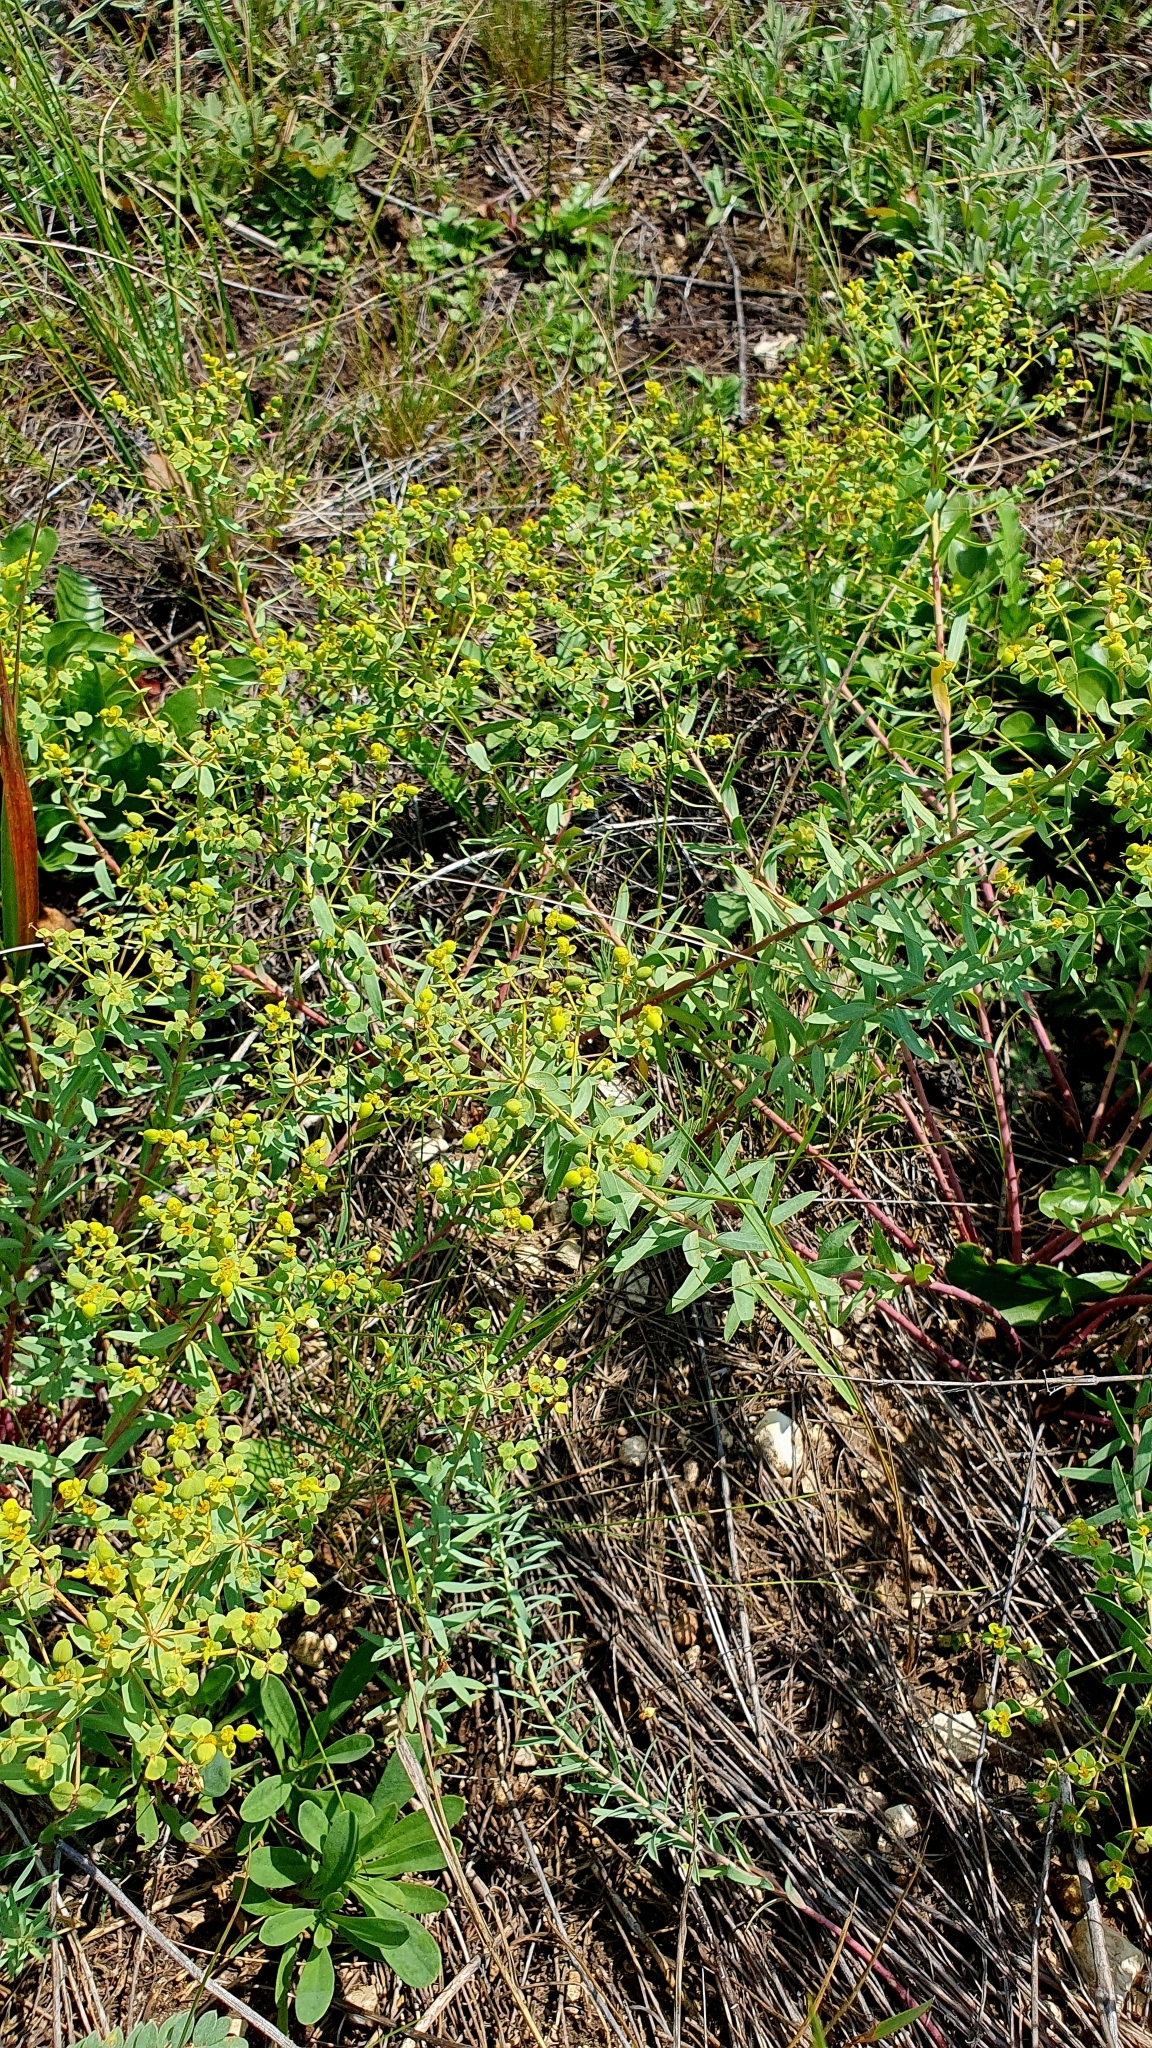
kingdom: Plantae
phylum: Tracheophyta
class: Magnoliopsida
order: Malpighiales
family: Euphorbiaceae
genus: Euphorbia
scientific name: Euphorbia seguieriana
